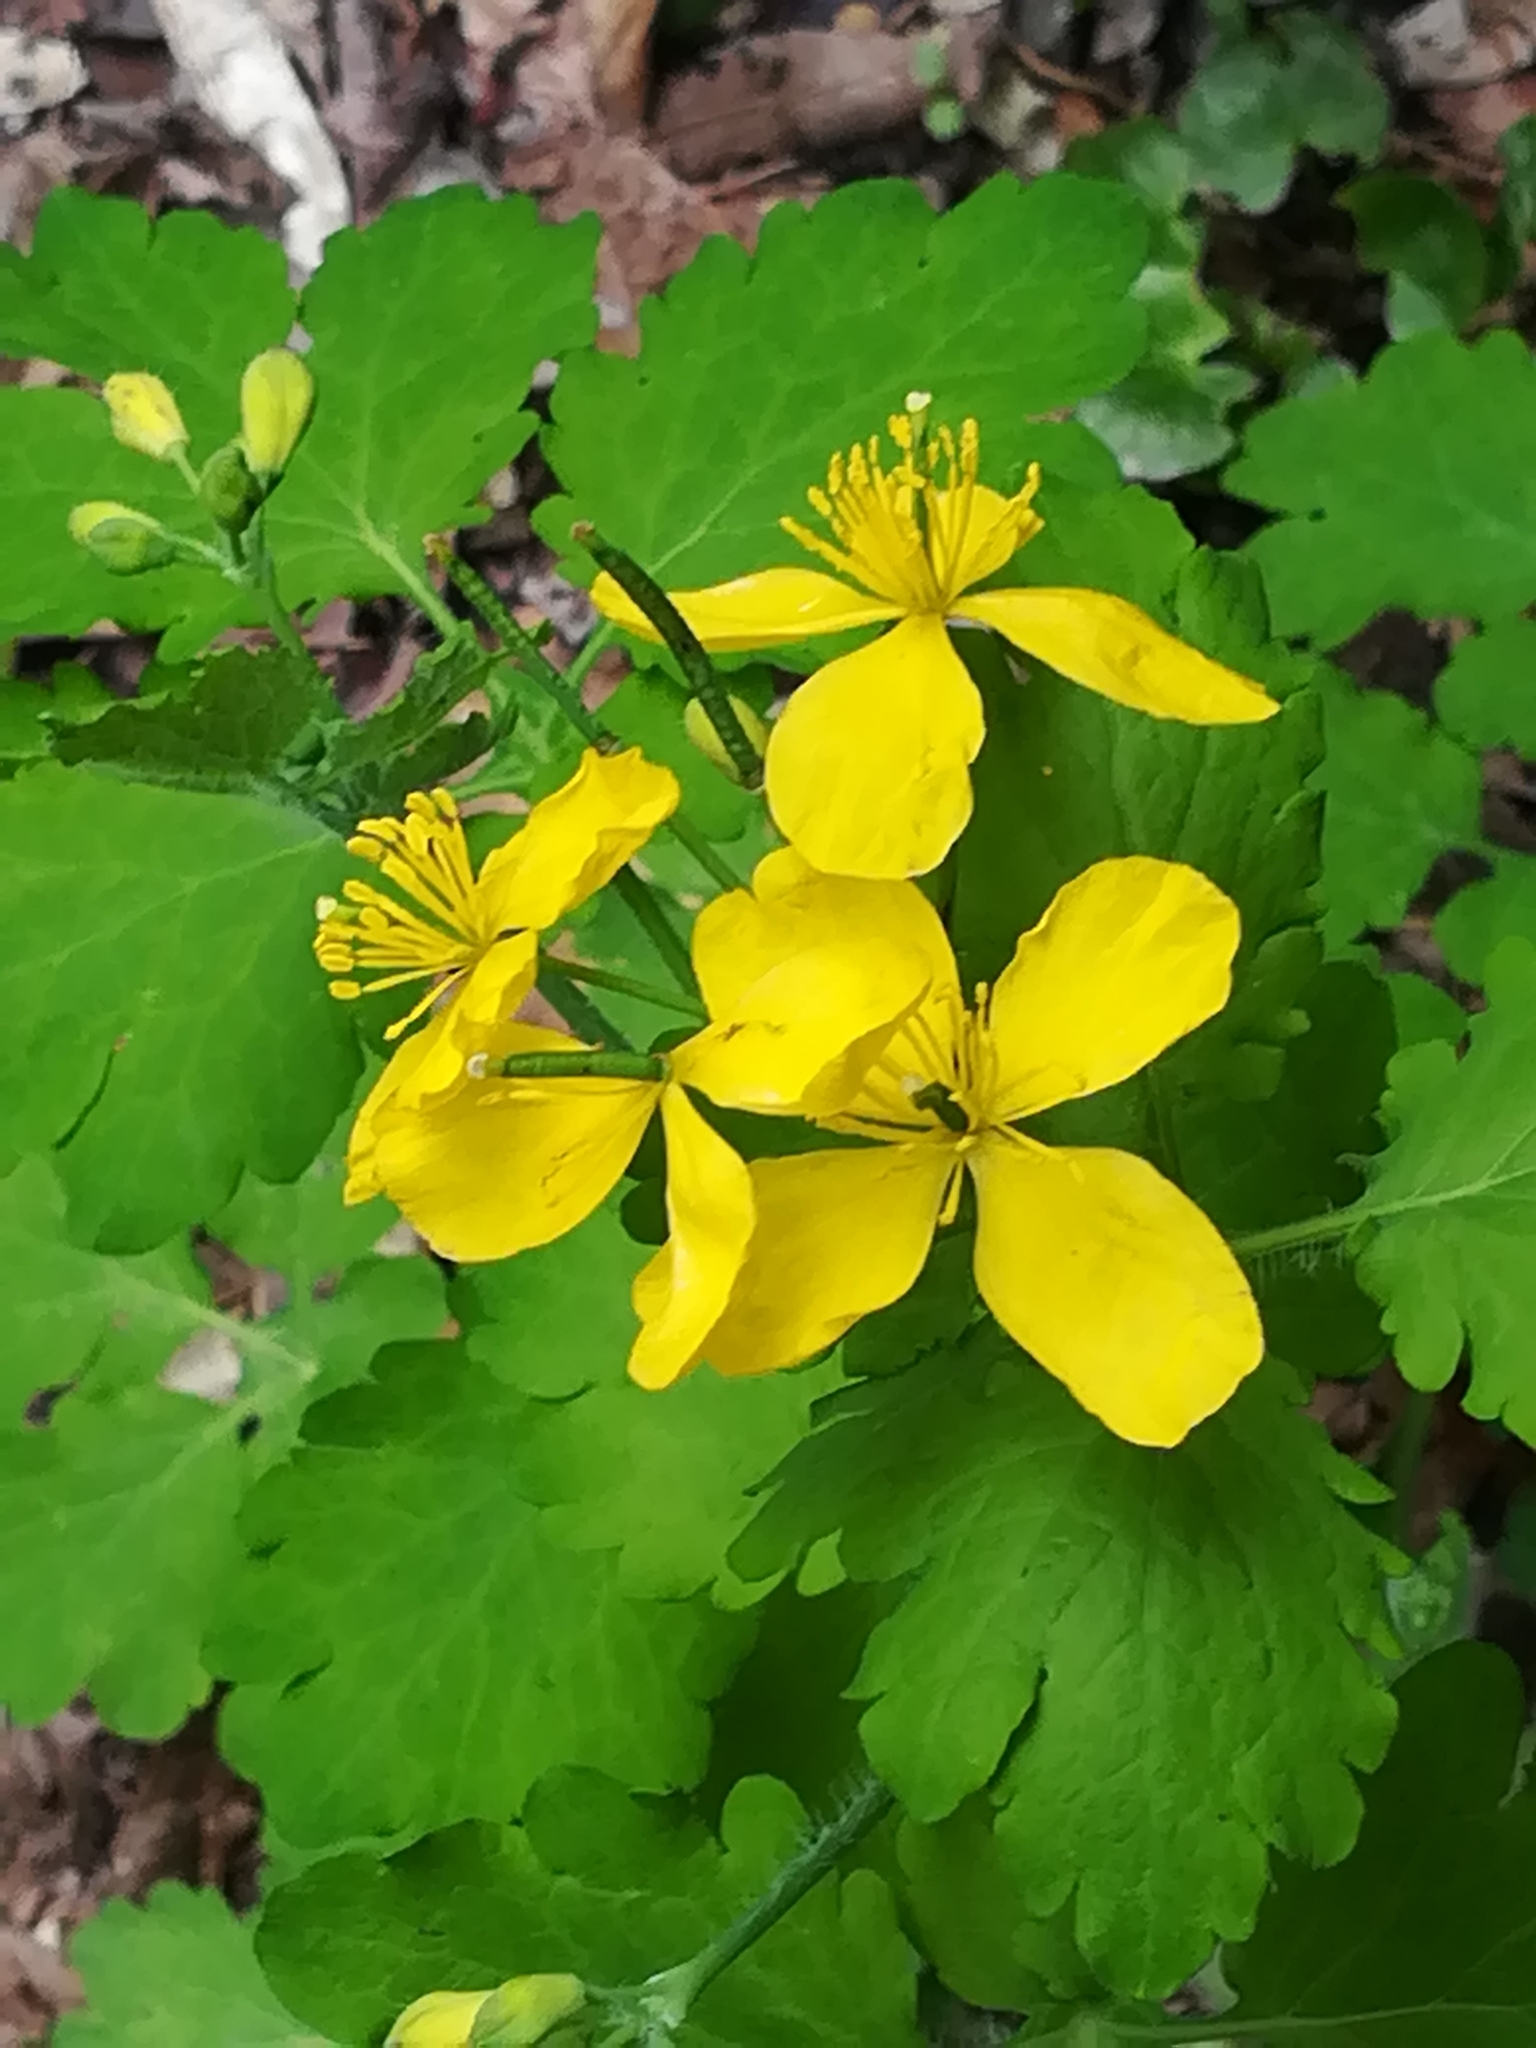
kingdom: Plantae
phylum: Tracheophyta
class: Magnoliopsida
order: Ranunculales
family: Papaveraceae
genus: Chelidonium
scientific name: Chelidonium majus
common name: Greater celandine
